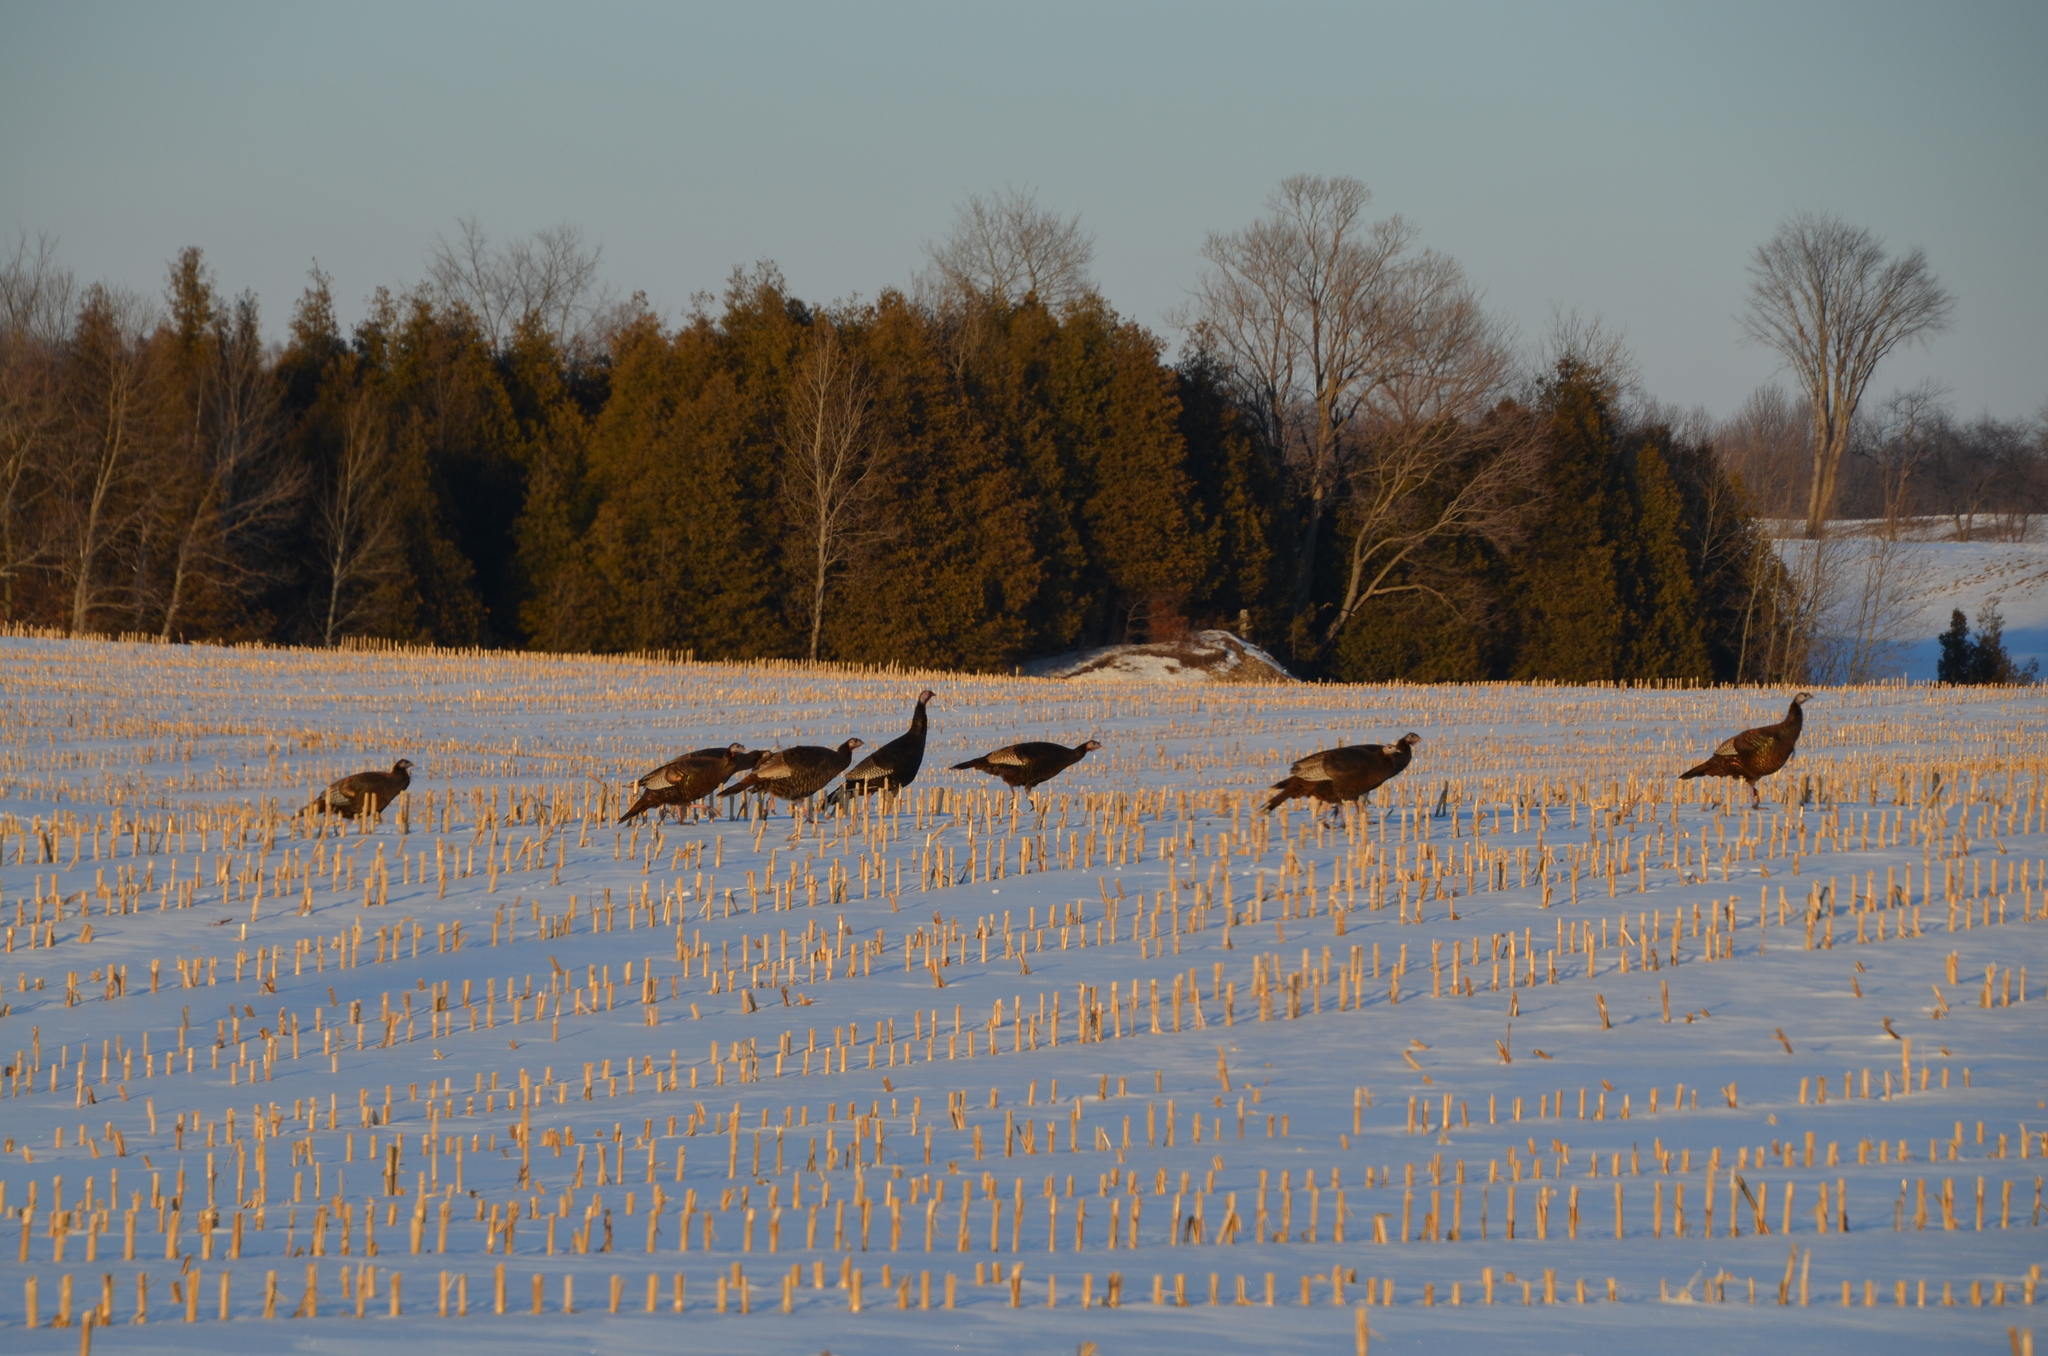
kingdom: Animalia
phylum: Chordata
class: Aves
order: Galliformes
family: Phasianidae
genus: Meleagris
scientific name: Meleagris gallopavo
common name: Wild turkey
